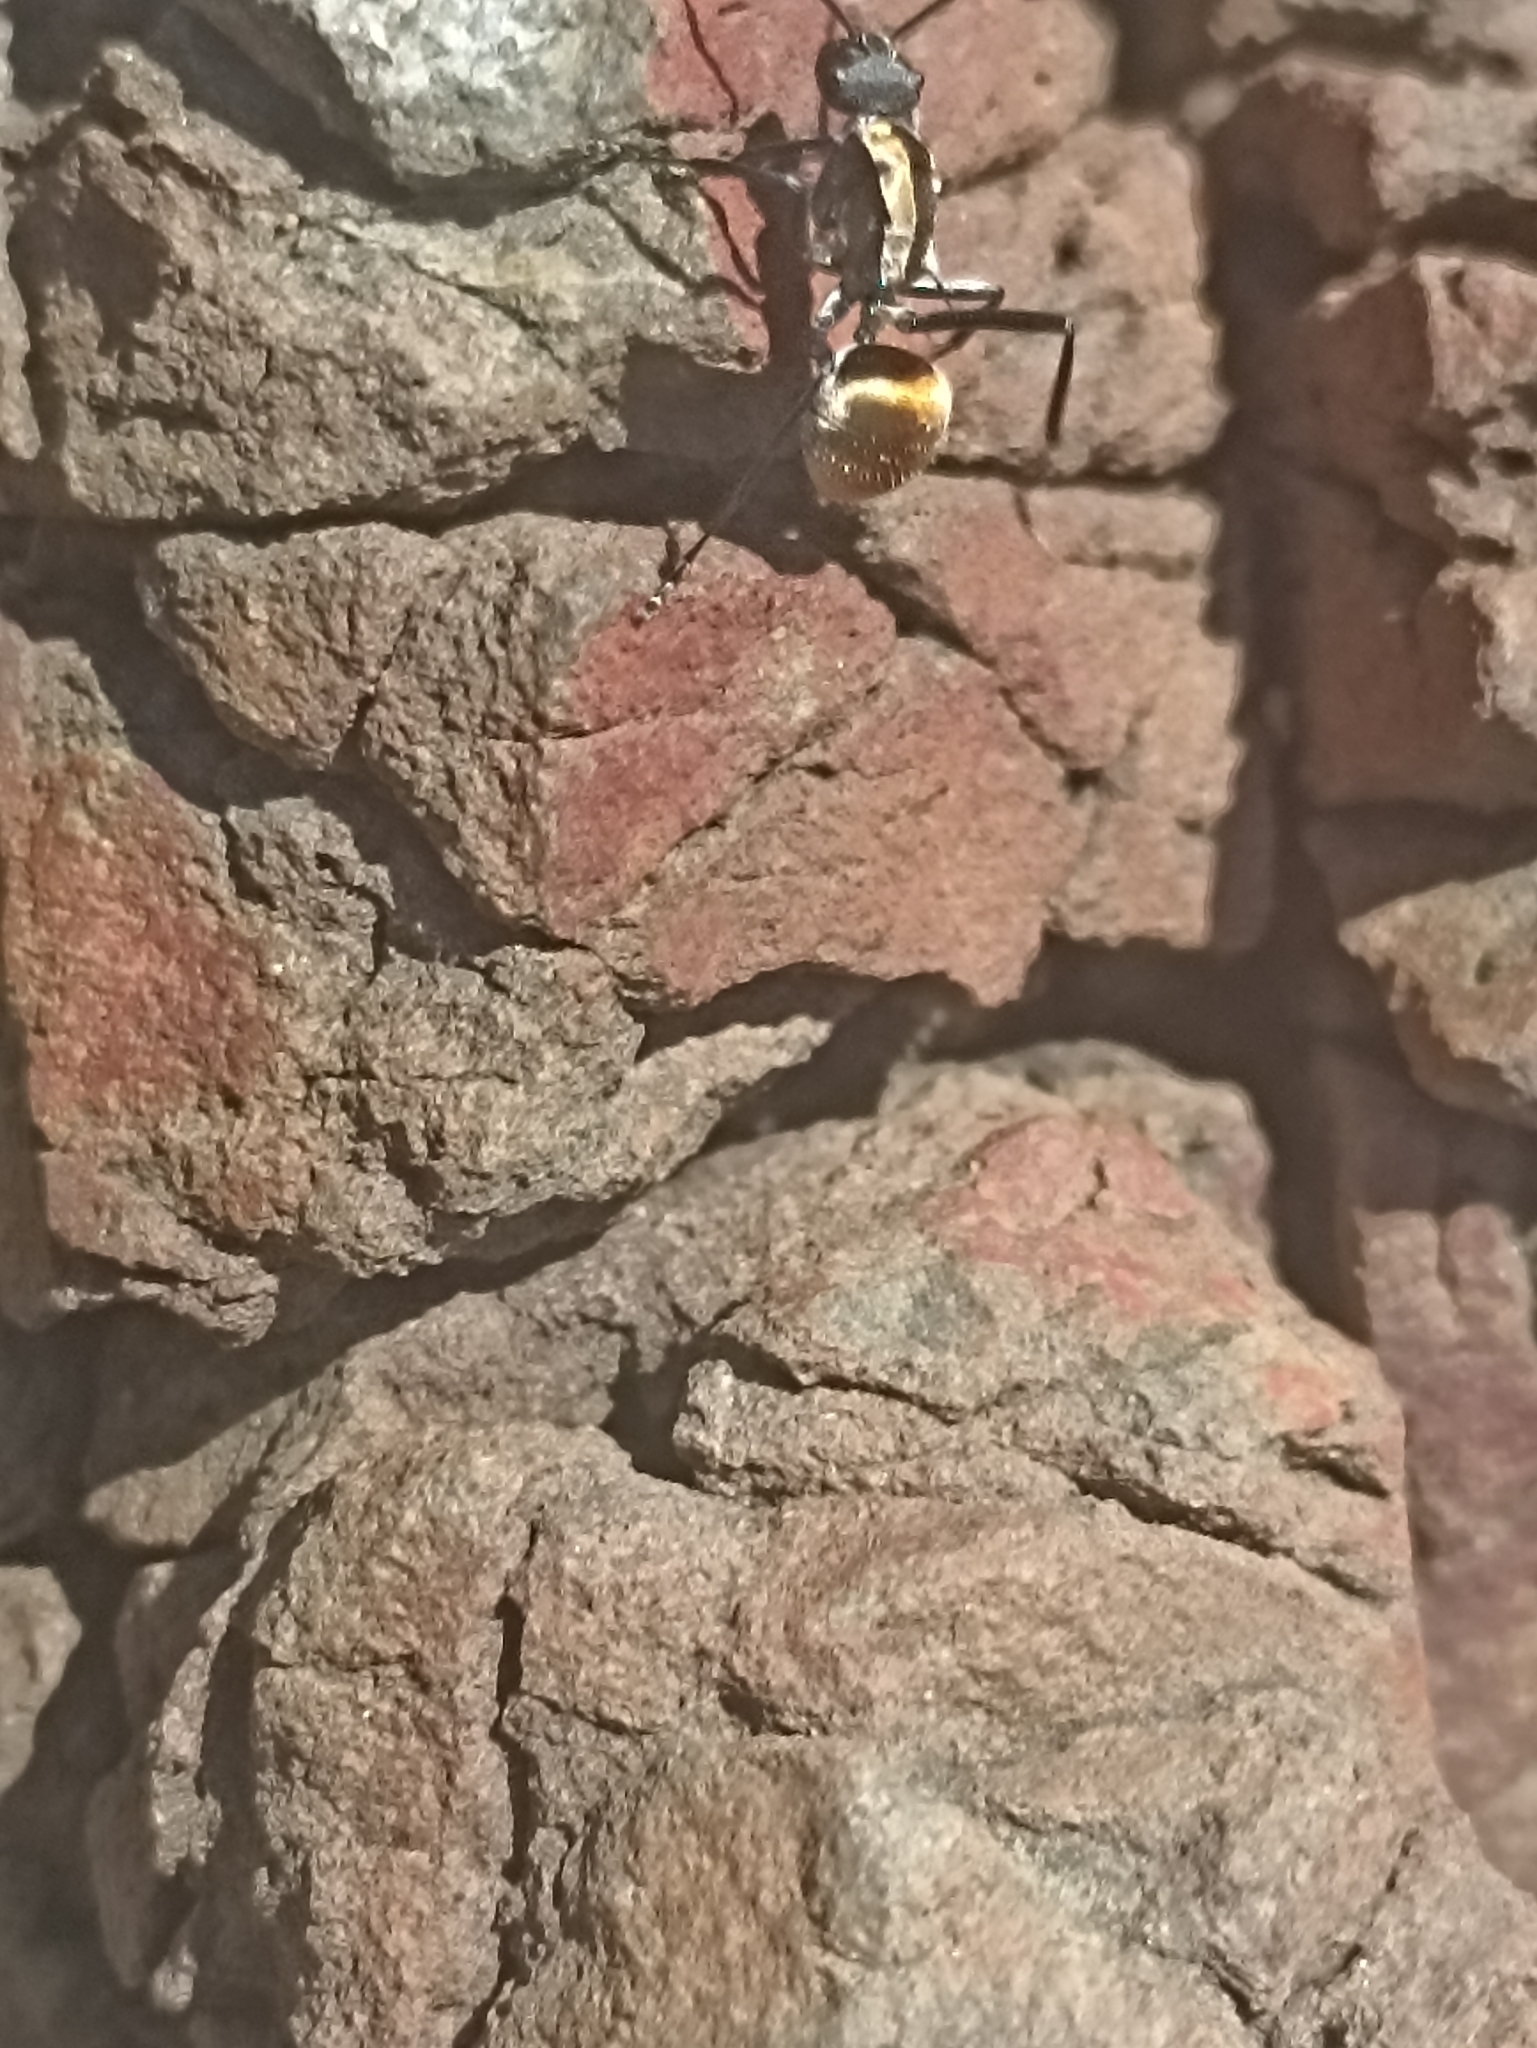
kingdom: Animalia
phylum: Arthropoda
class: Insecta
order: Hymenoptera
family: Formicidae
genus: Polyrhachis
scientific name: Polyrhachis ammon
